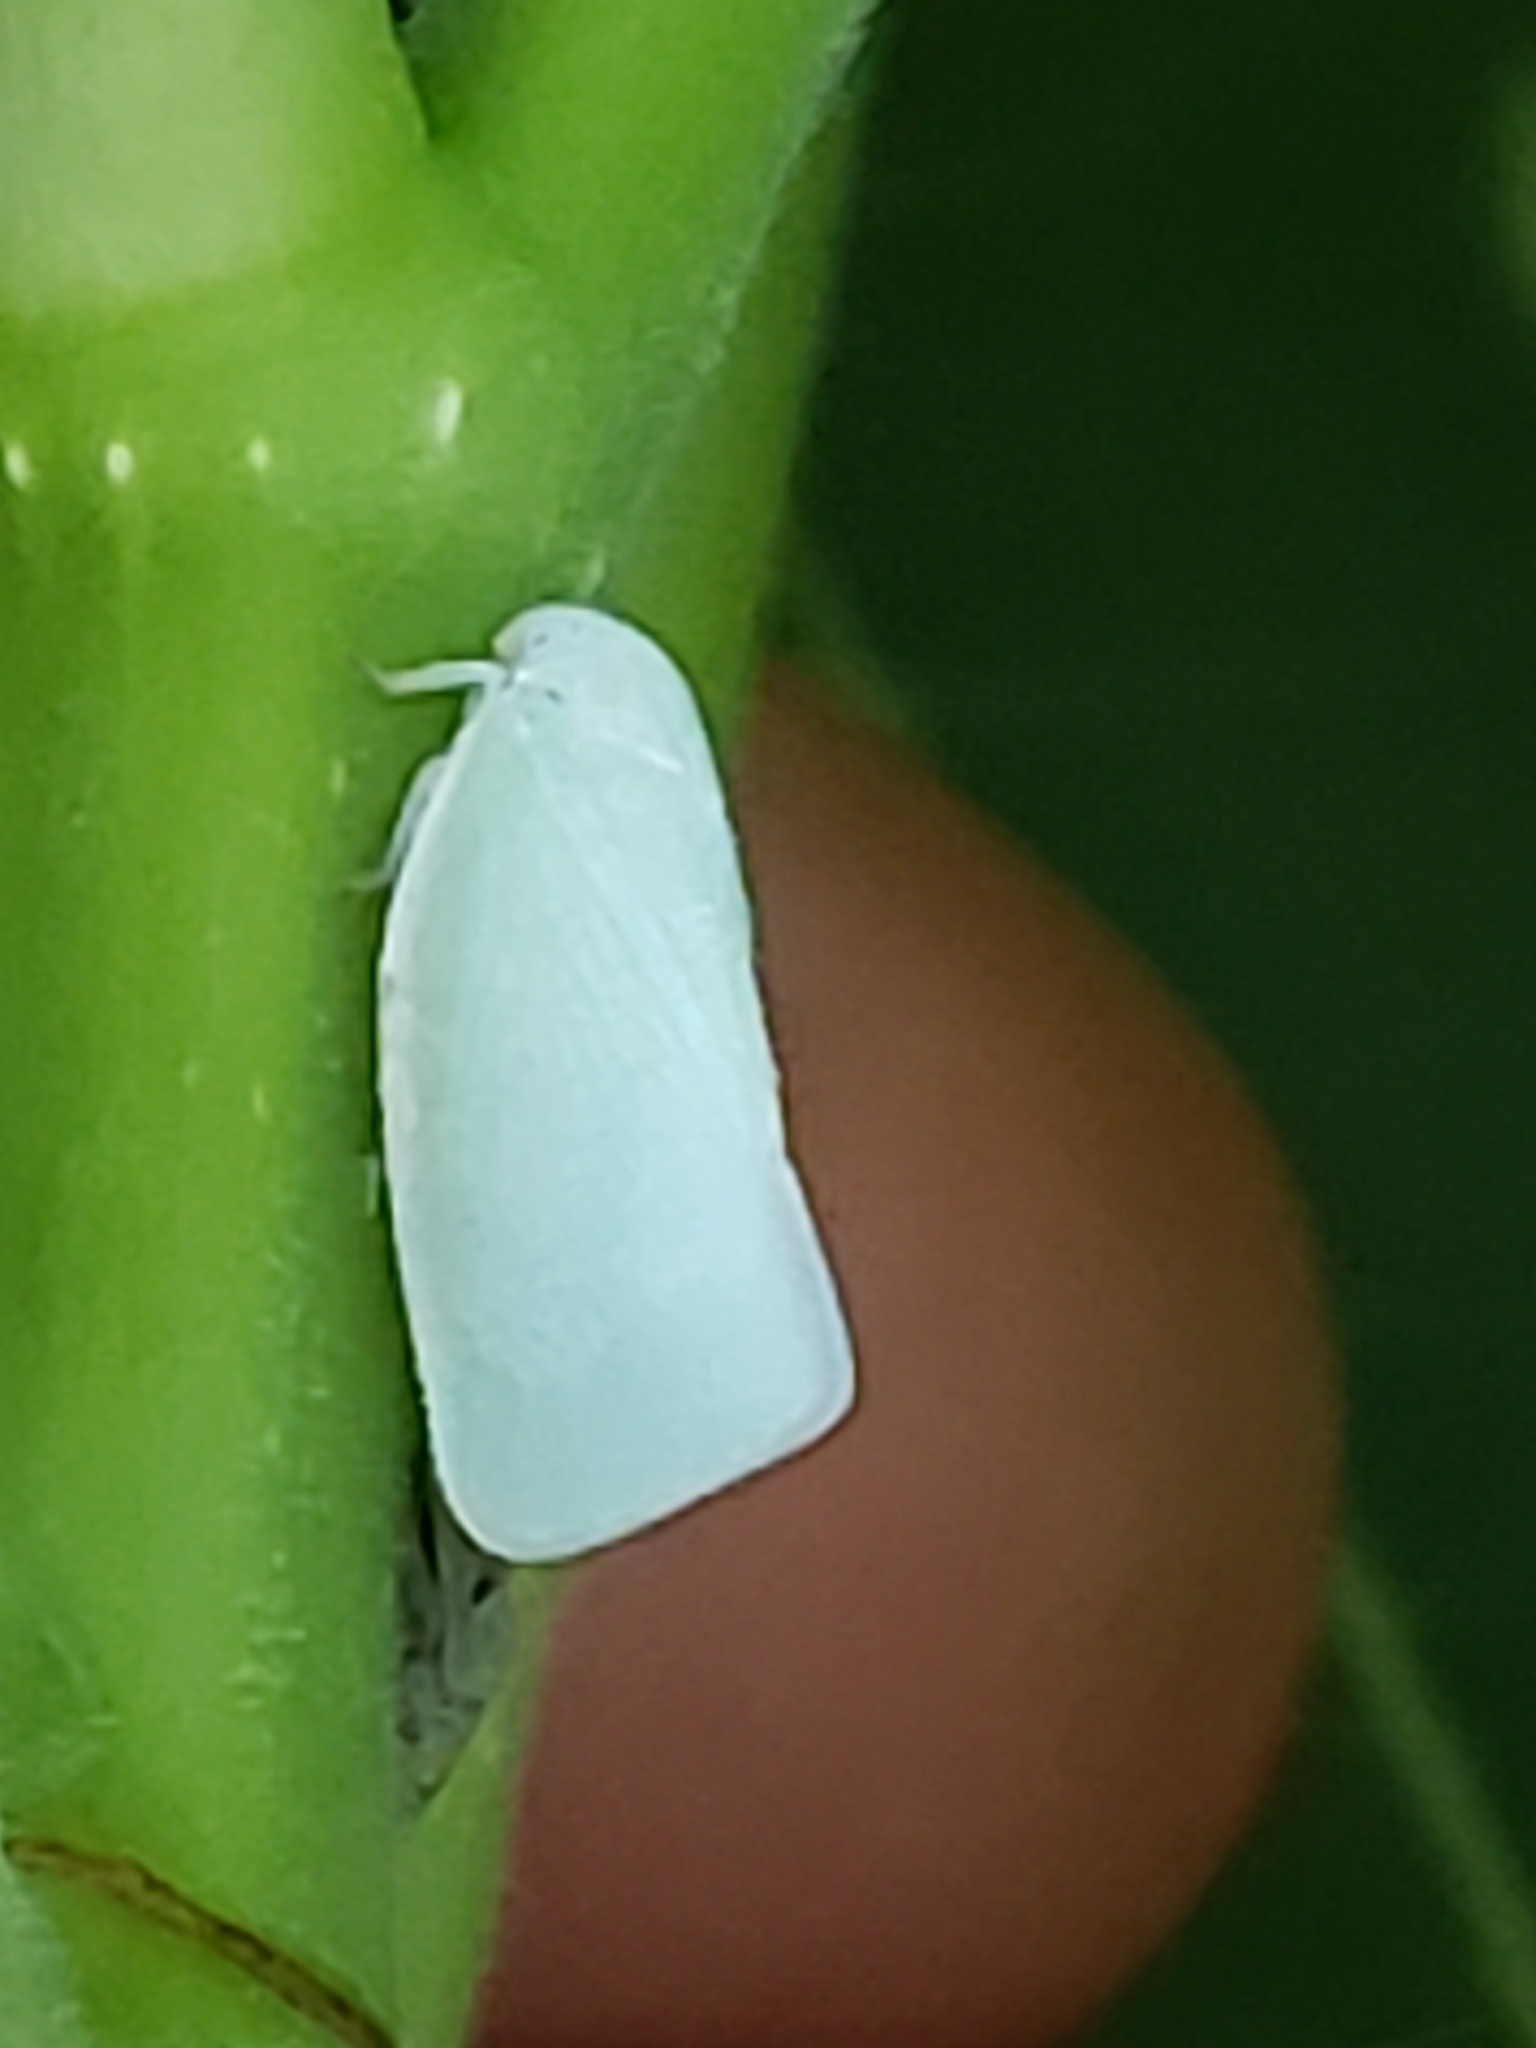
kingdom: Animalia
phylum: Arthropoda
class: Insecta
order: Hemiptera
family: Flatidae
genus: Flatormenis
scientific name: Flatormenis proxima
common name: Northern flatid planthopper
